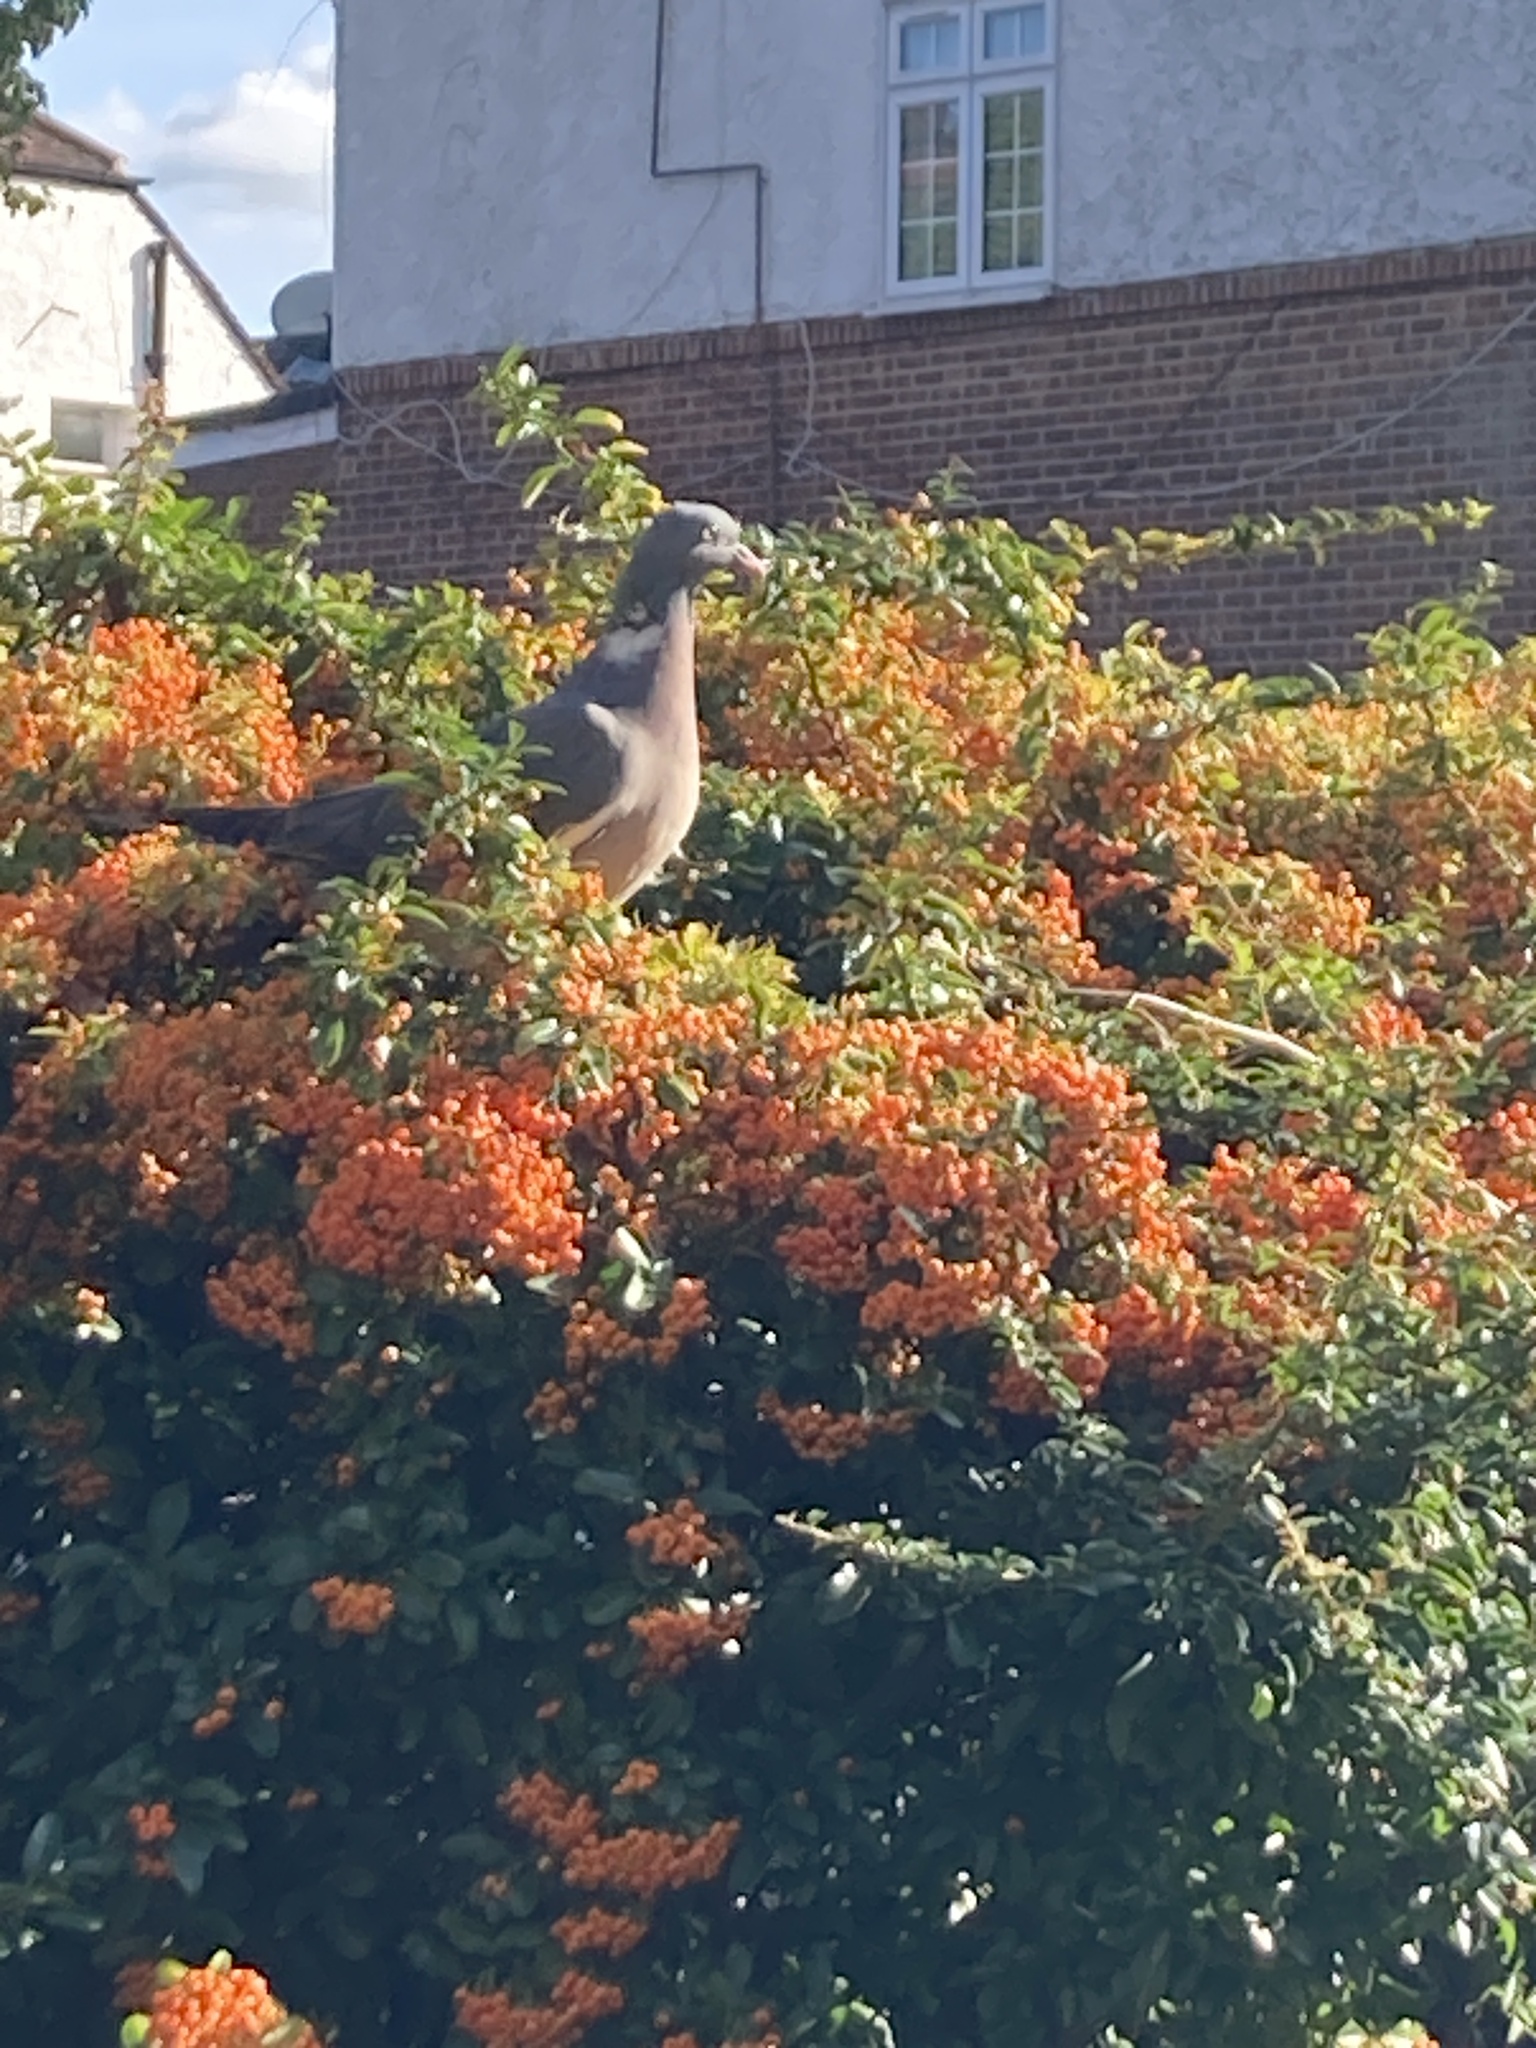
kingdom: Animalia
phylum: Chordata
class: Aves
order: Columbiformes
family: Columbidae
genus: Columba
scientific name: Columba palumbus
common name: Common wood pigeon
